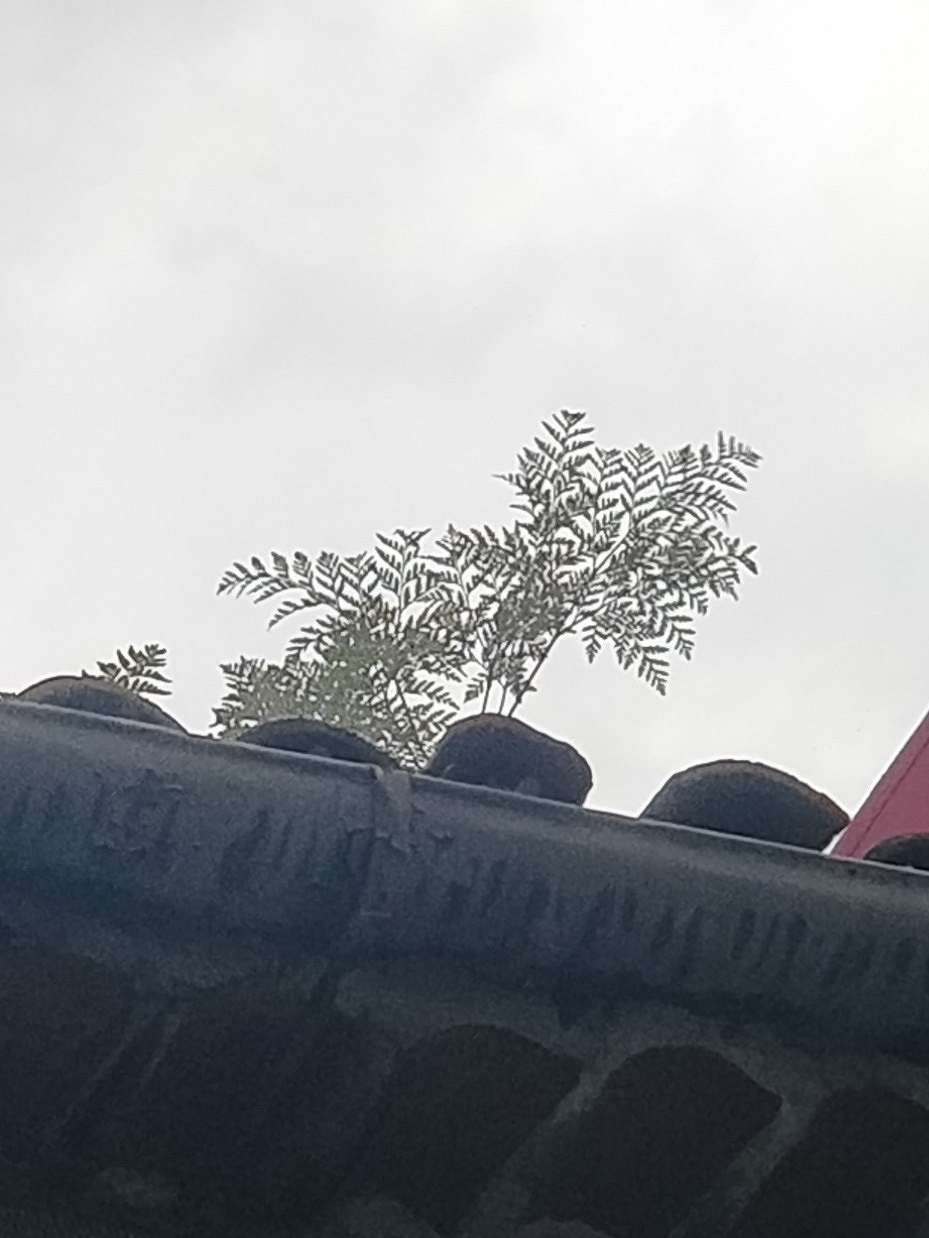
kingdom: Plantae
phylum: Tracheophyta
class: Polypodiopsida
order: Polypodiales
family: Davalliaceae
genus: Davallia
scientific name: Davallia canariensis
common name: Hare's-foot fern
